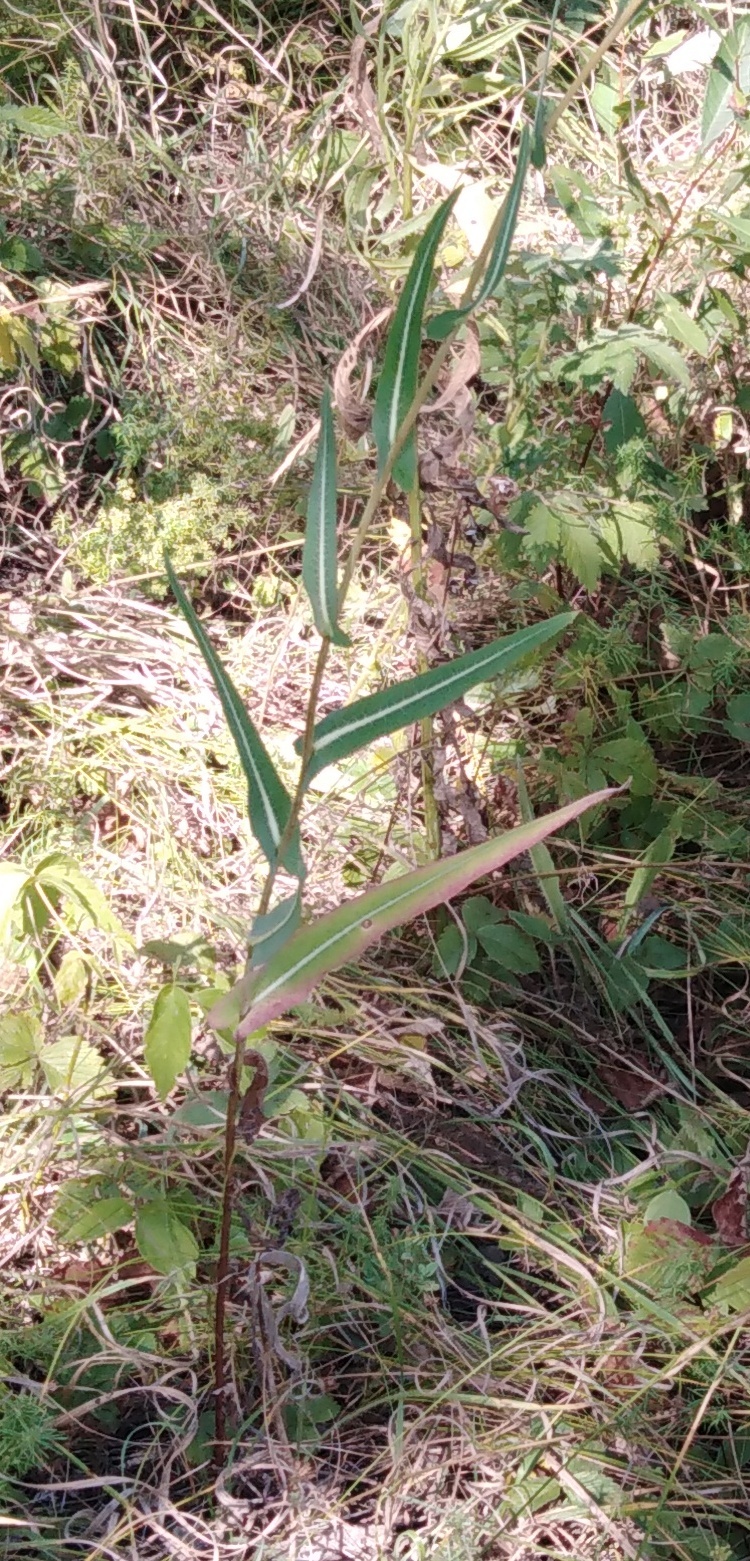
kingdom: Plantae
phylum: Tracheophyta
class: Magnoliopsida
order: Asterales
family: Asteraceae
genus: Lactuca
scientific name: Lactuca serriola
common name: Prickly lettuce
